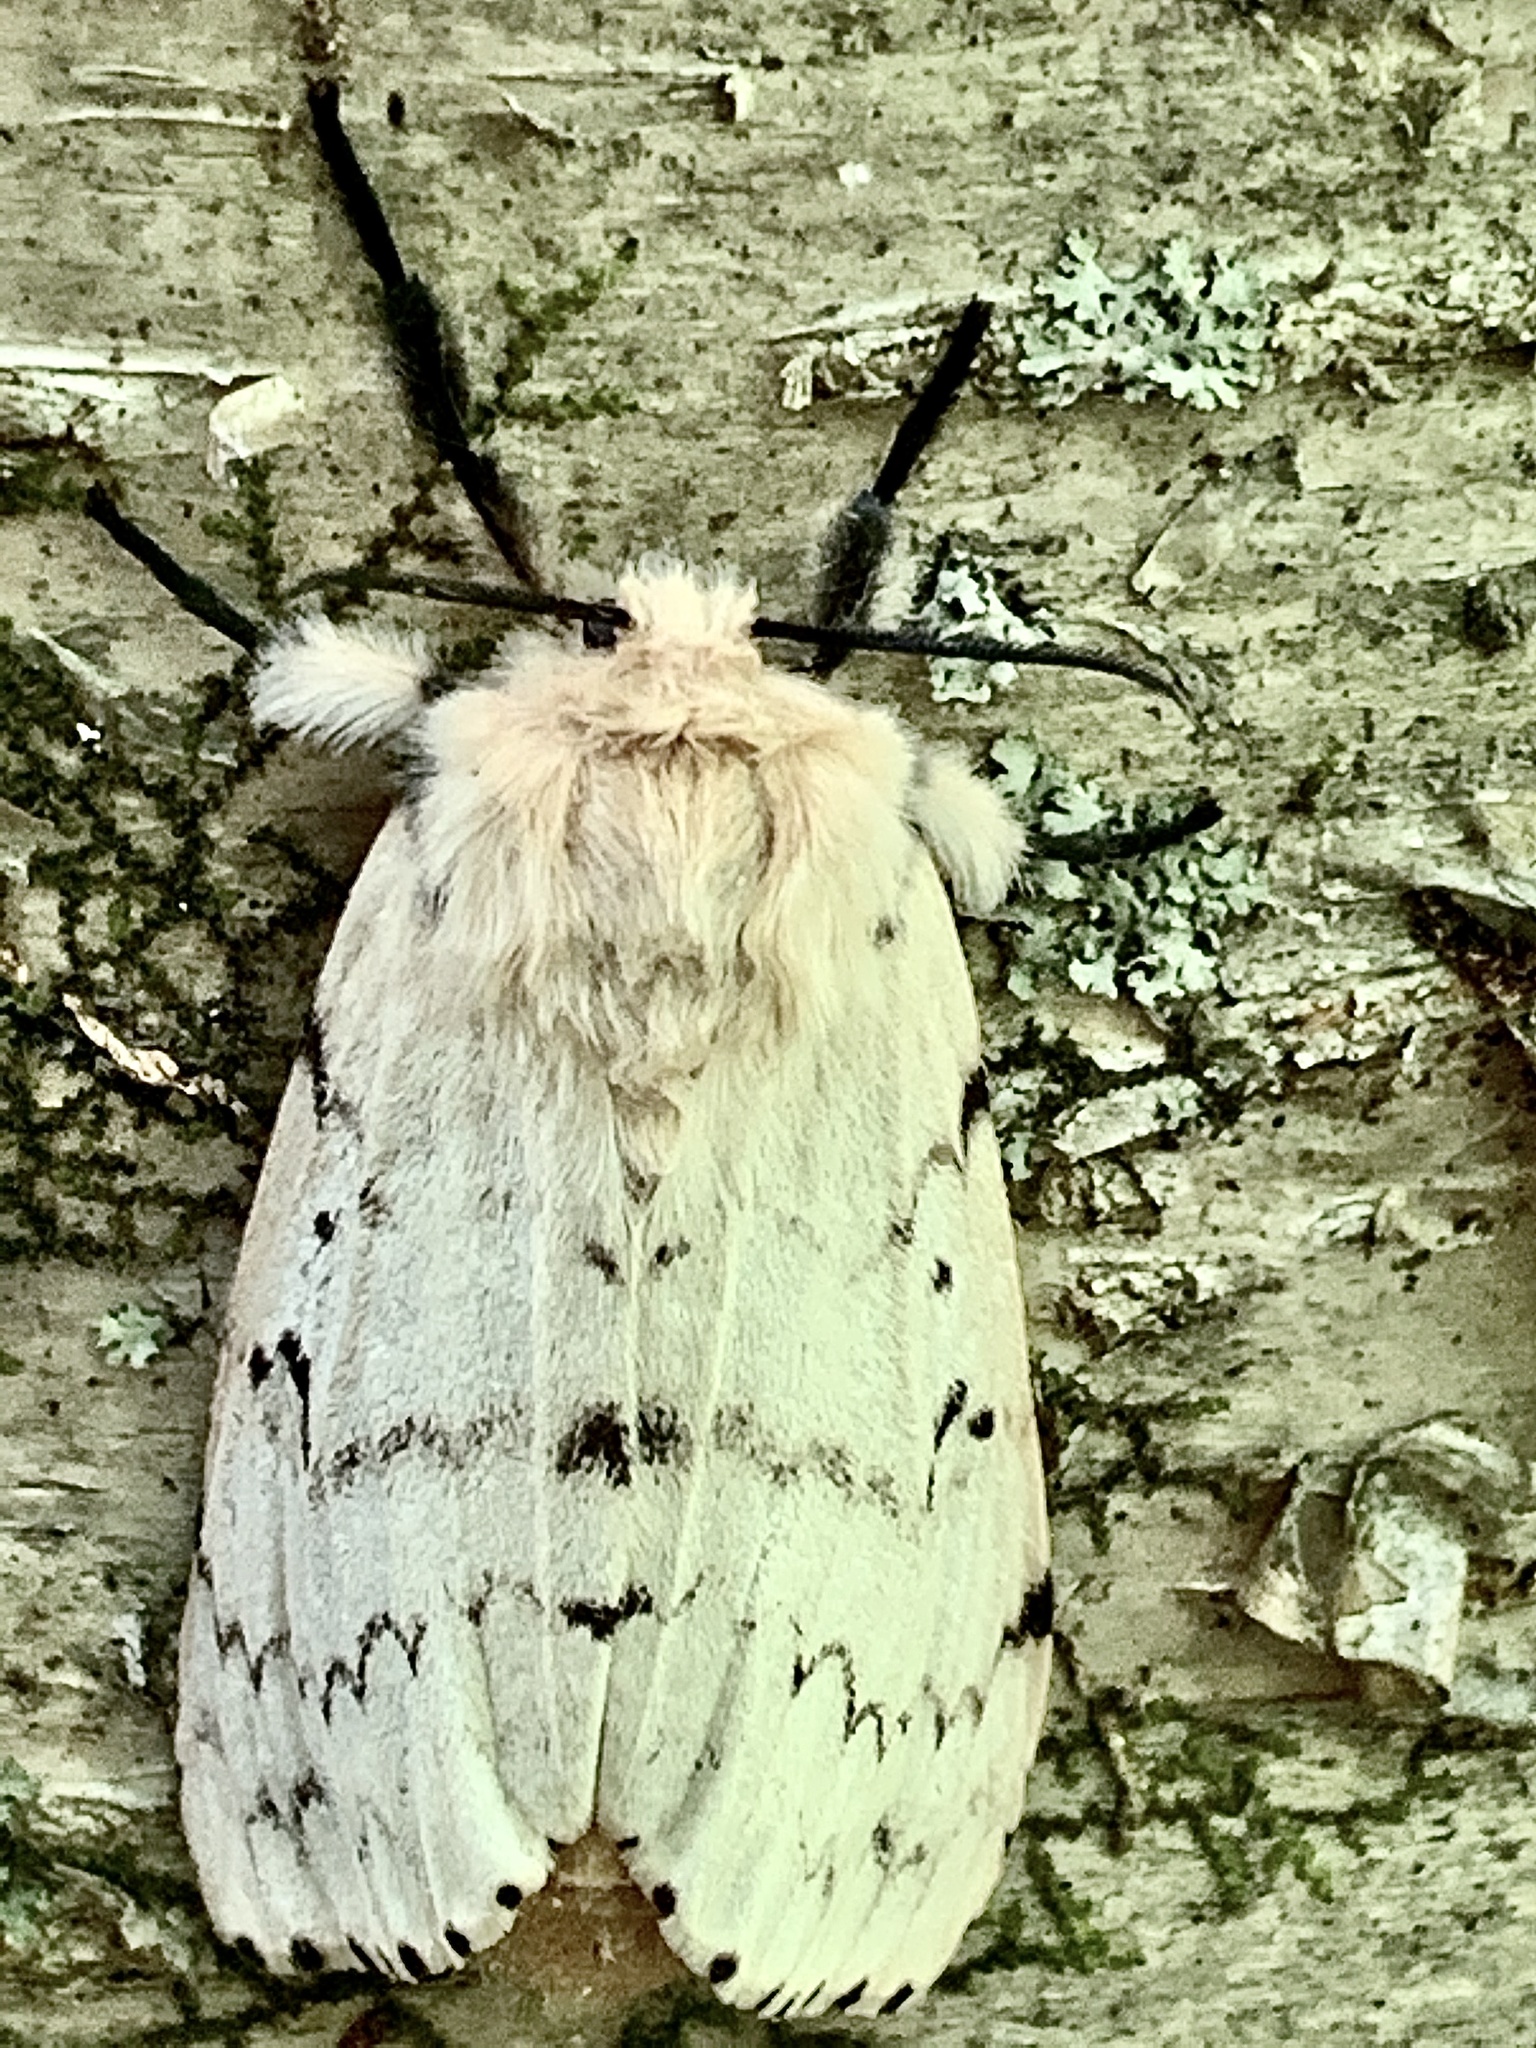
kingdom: Animalia
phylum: Arthropoda
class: Insecta
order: Lepidoptera
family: Erebidae
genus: Lymantria
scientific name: Lymantria dispar
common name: Gypsy moth
